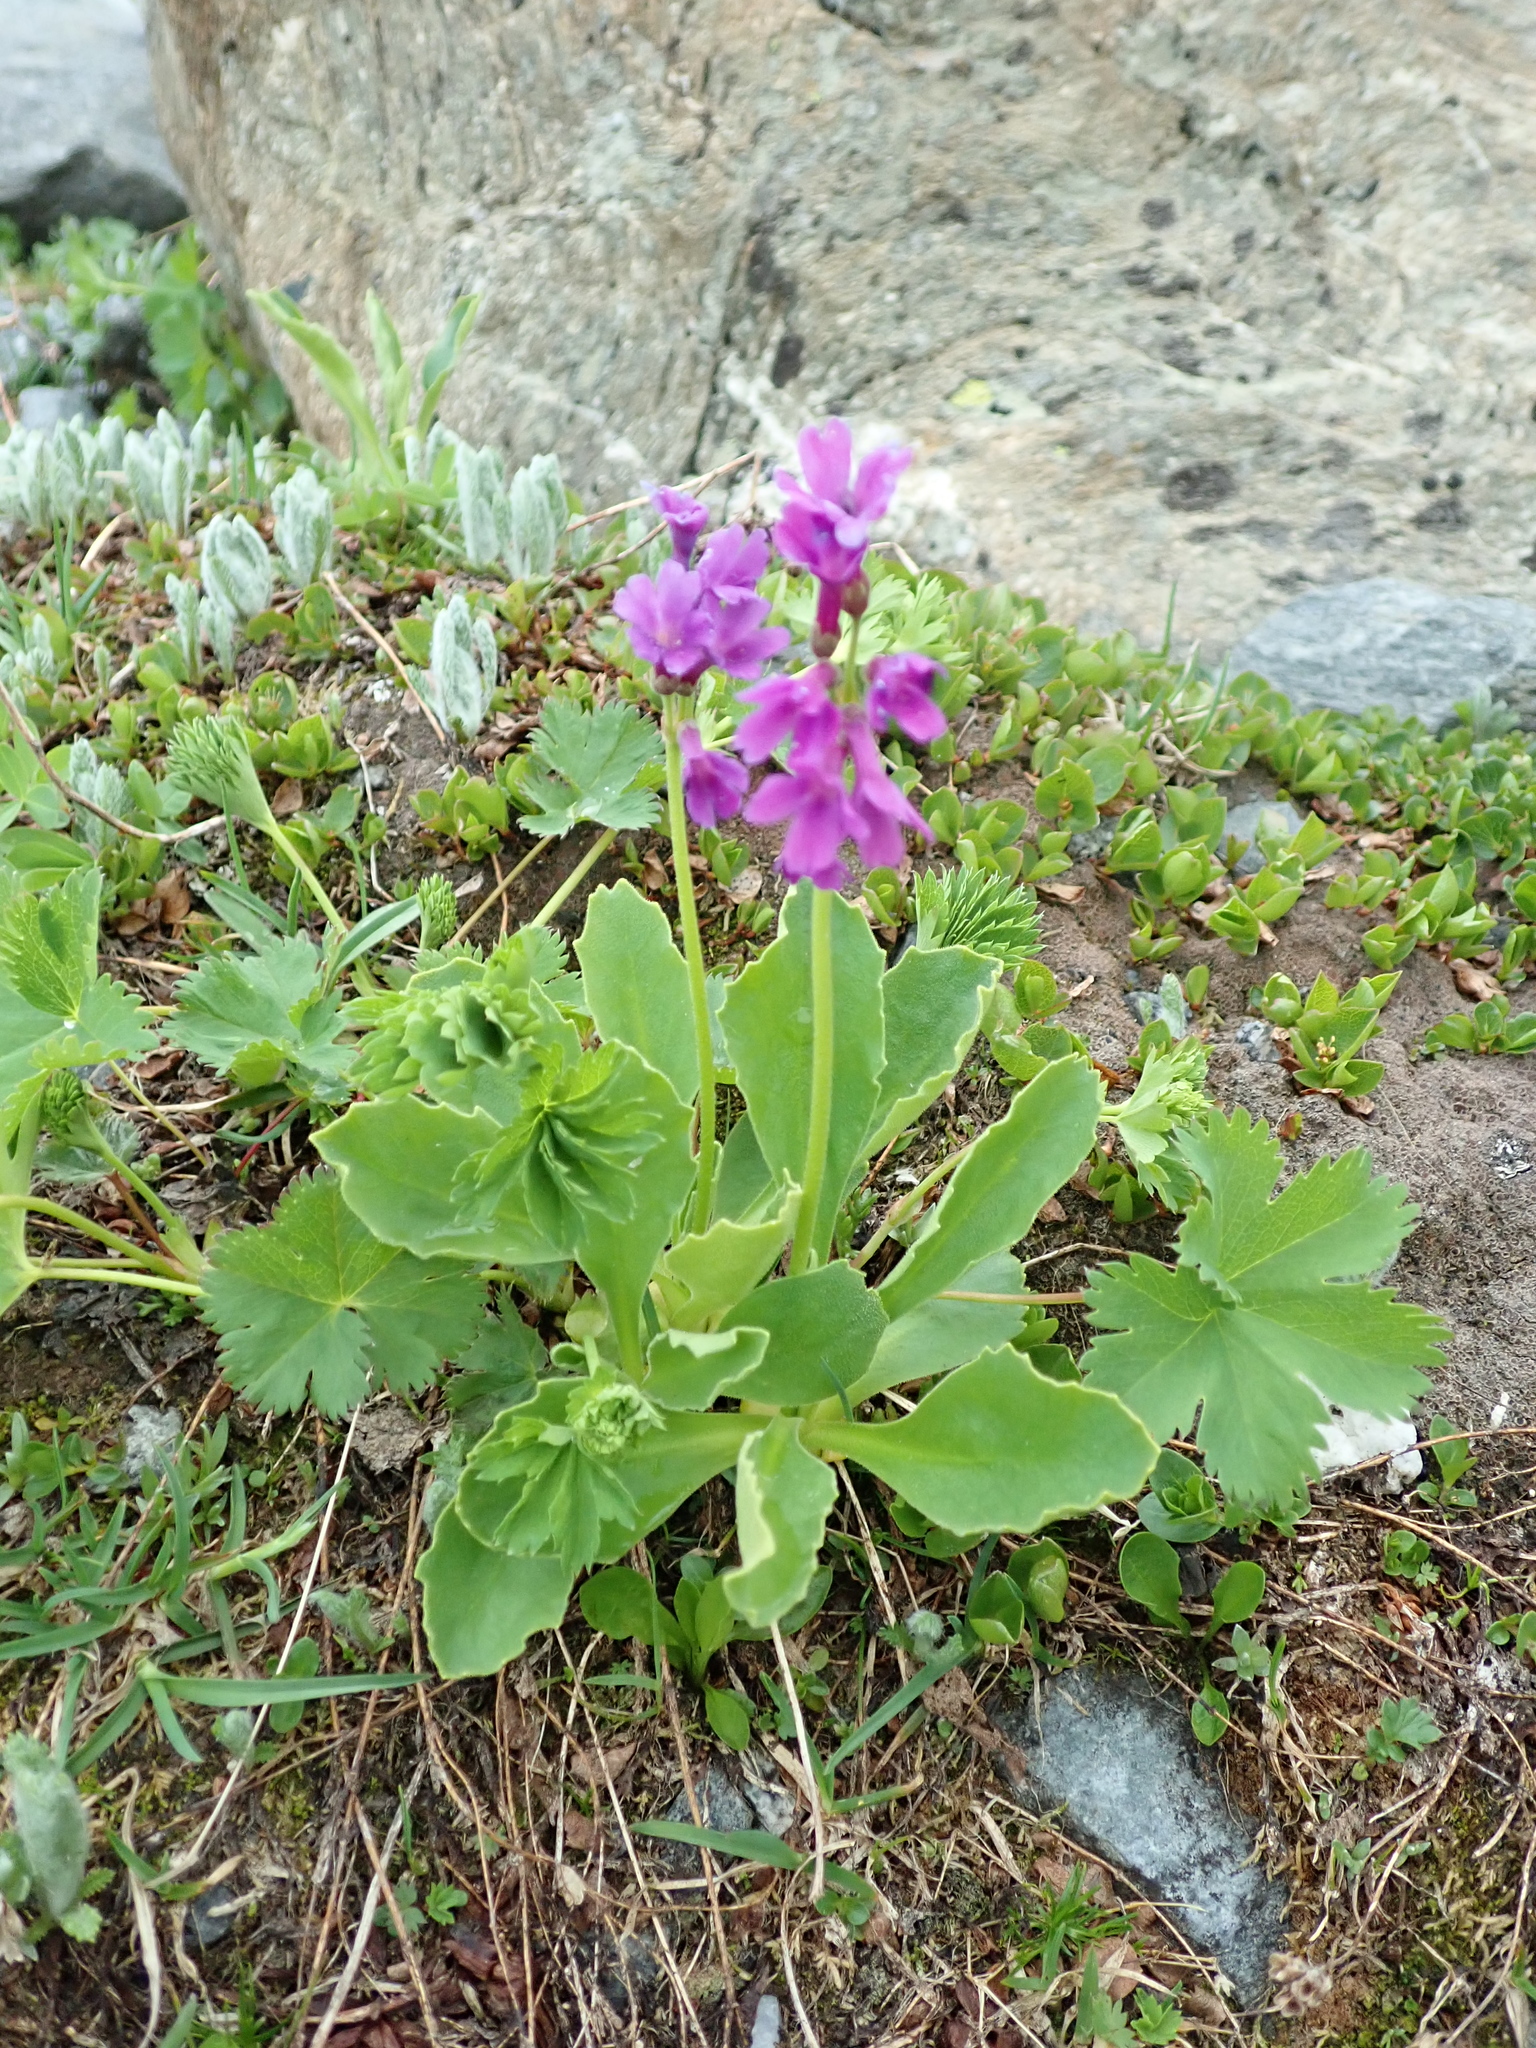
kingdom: Plantae
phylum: Tracheophyta
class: Magnoliopsida
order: Ericales
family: Primulaceae
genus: Primula
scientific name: Primula latifolia
